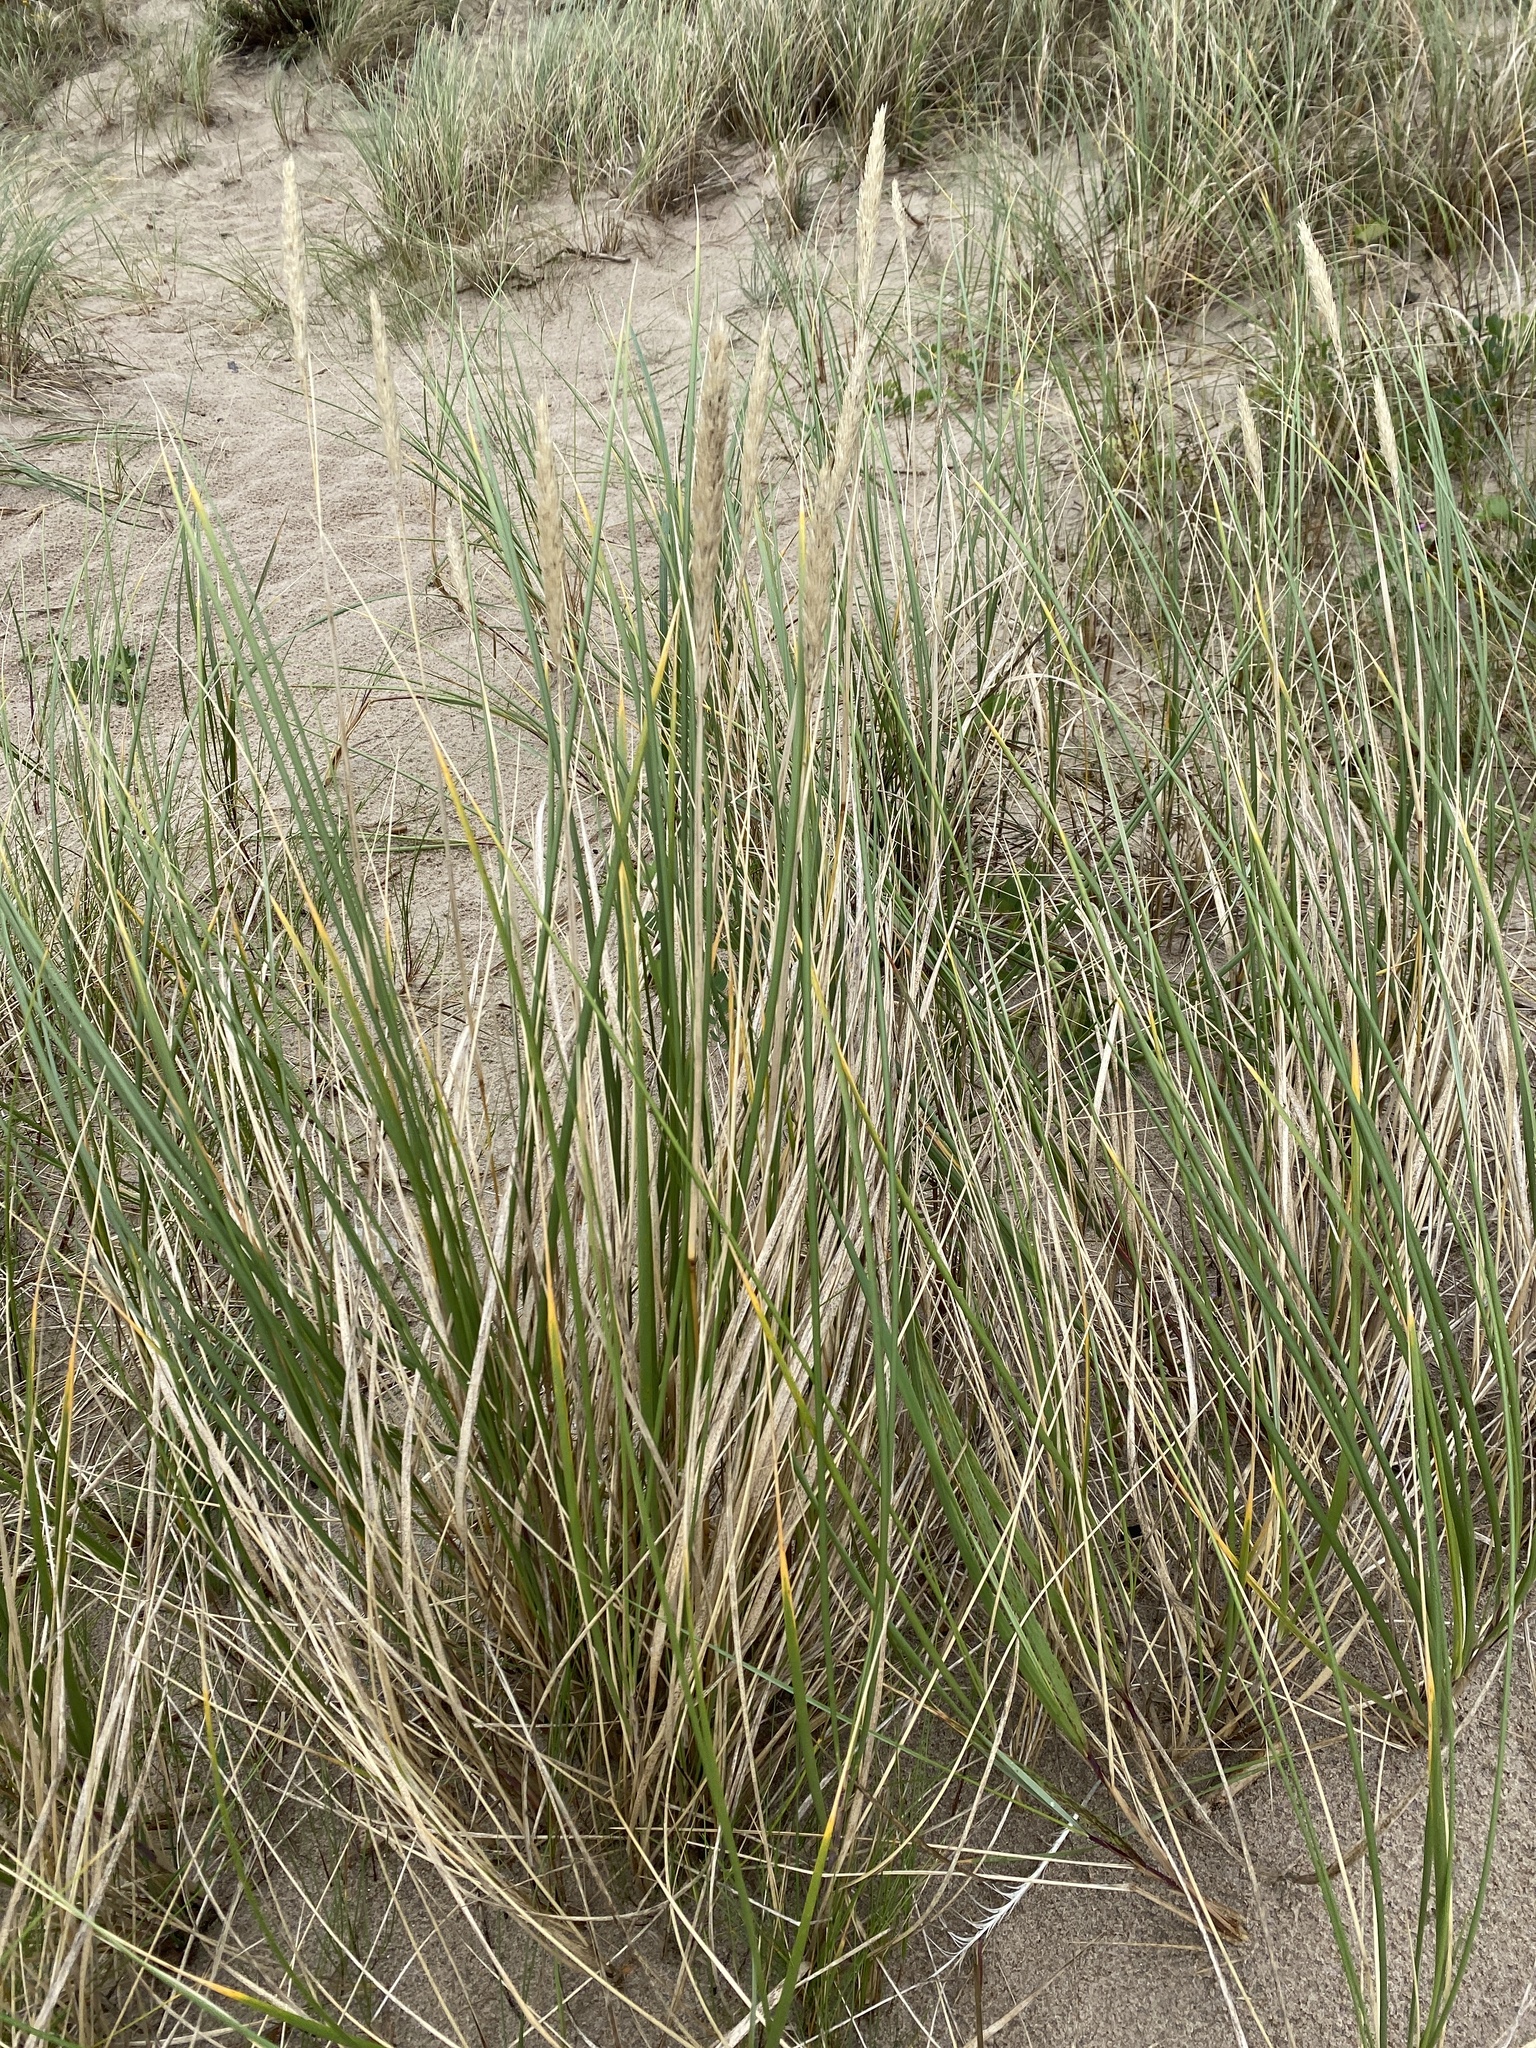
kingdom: Plantae
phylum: Tracheophyta
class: Liliopsida
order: Poales
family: Poaceae
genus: Calamagrostis
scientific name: Calamagrostis arenaria
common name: European beachgrass
